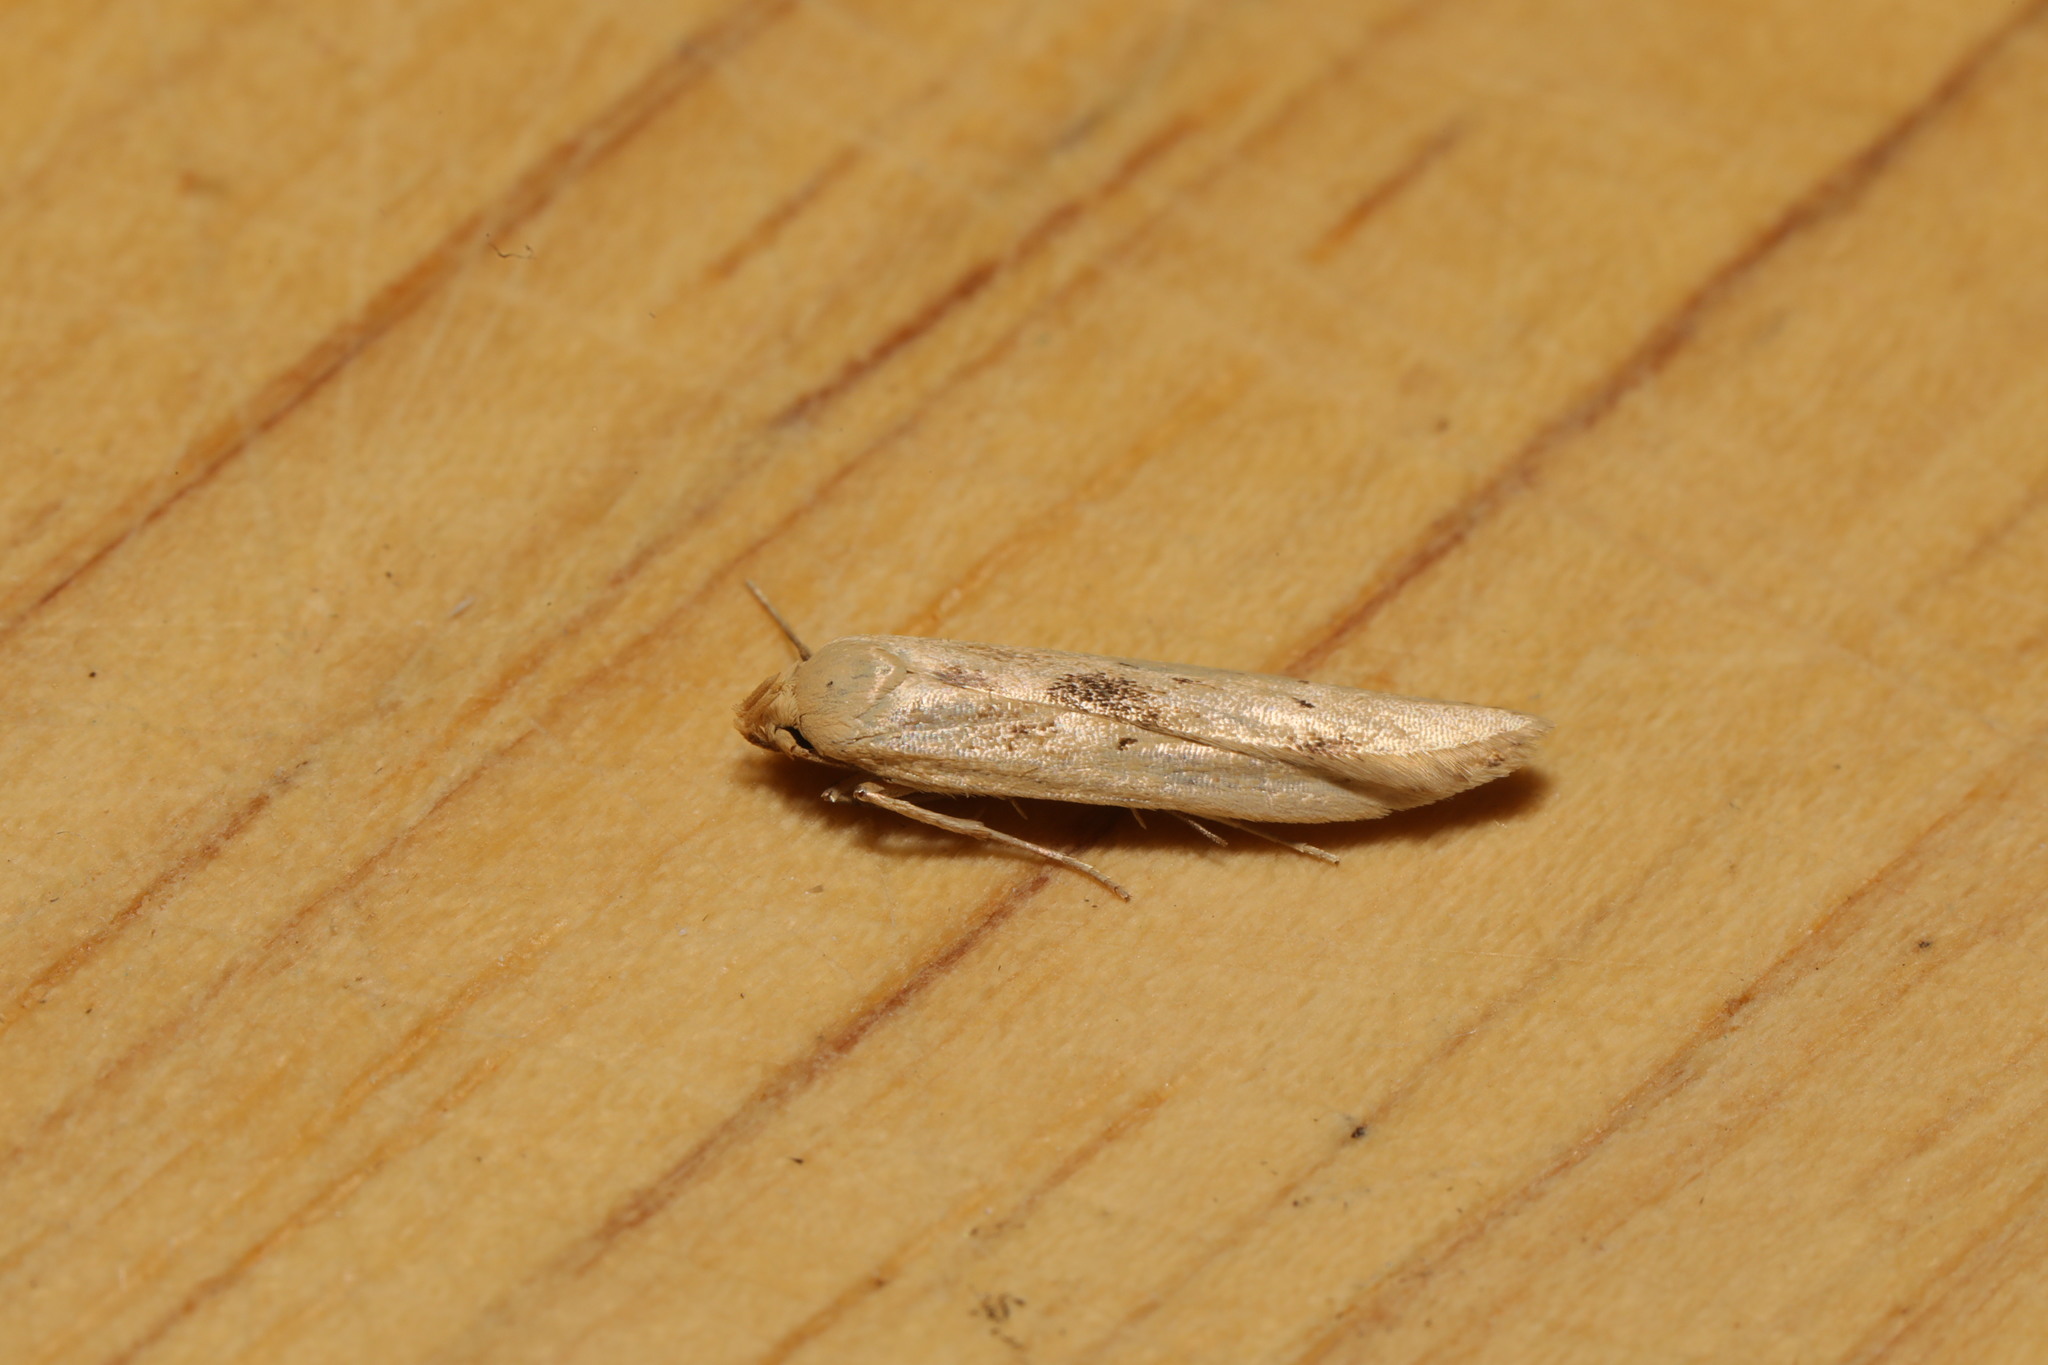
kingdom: Animalia
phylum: Arthropoda
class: Insecta
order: Lepidoptera
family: Blastobasidae
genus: Blastobasis
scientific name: Blastobasis lacticolella
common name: London dowd
